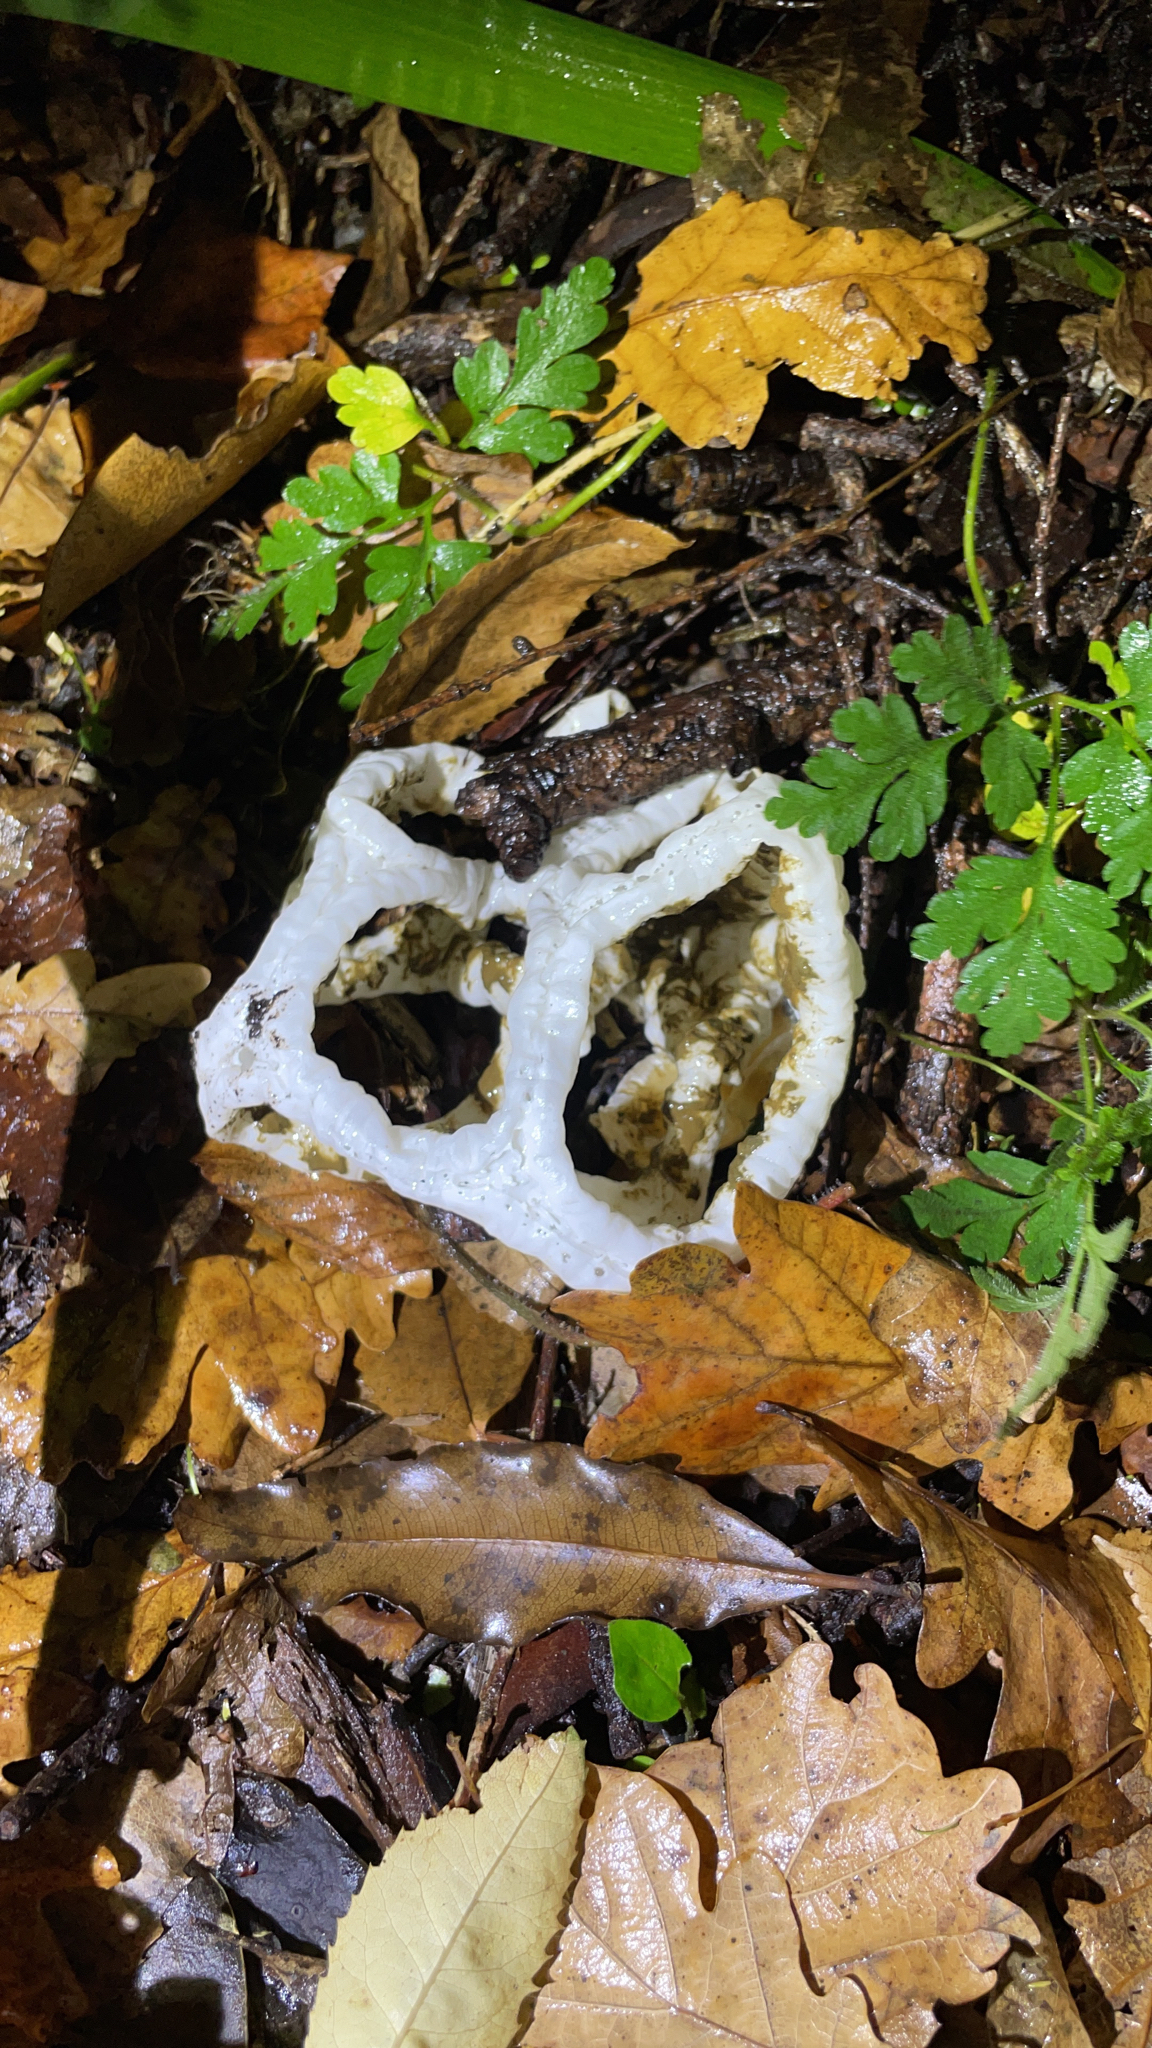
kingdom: Fungi
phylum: Basidiomycota
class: Agaricomycetes
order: Phallales
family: Phallaceae
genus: Ileodictyon
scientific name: Ileodictyon cibarium
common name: Basket fungus
